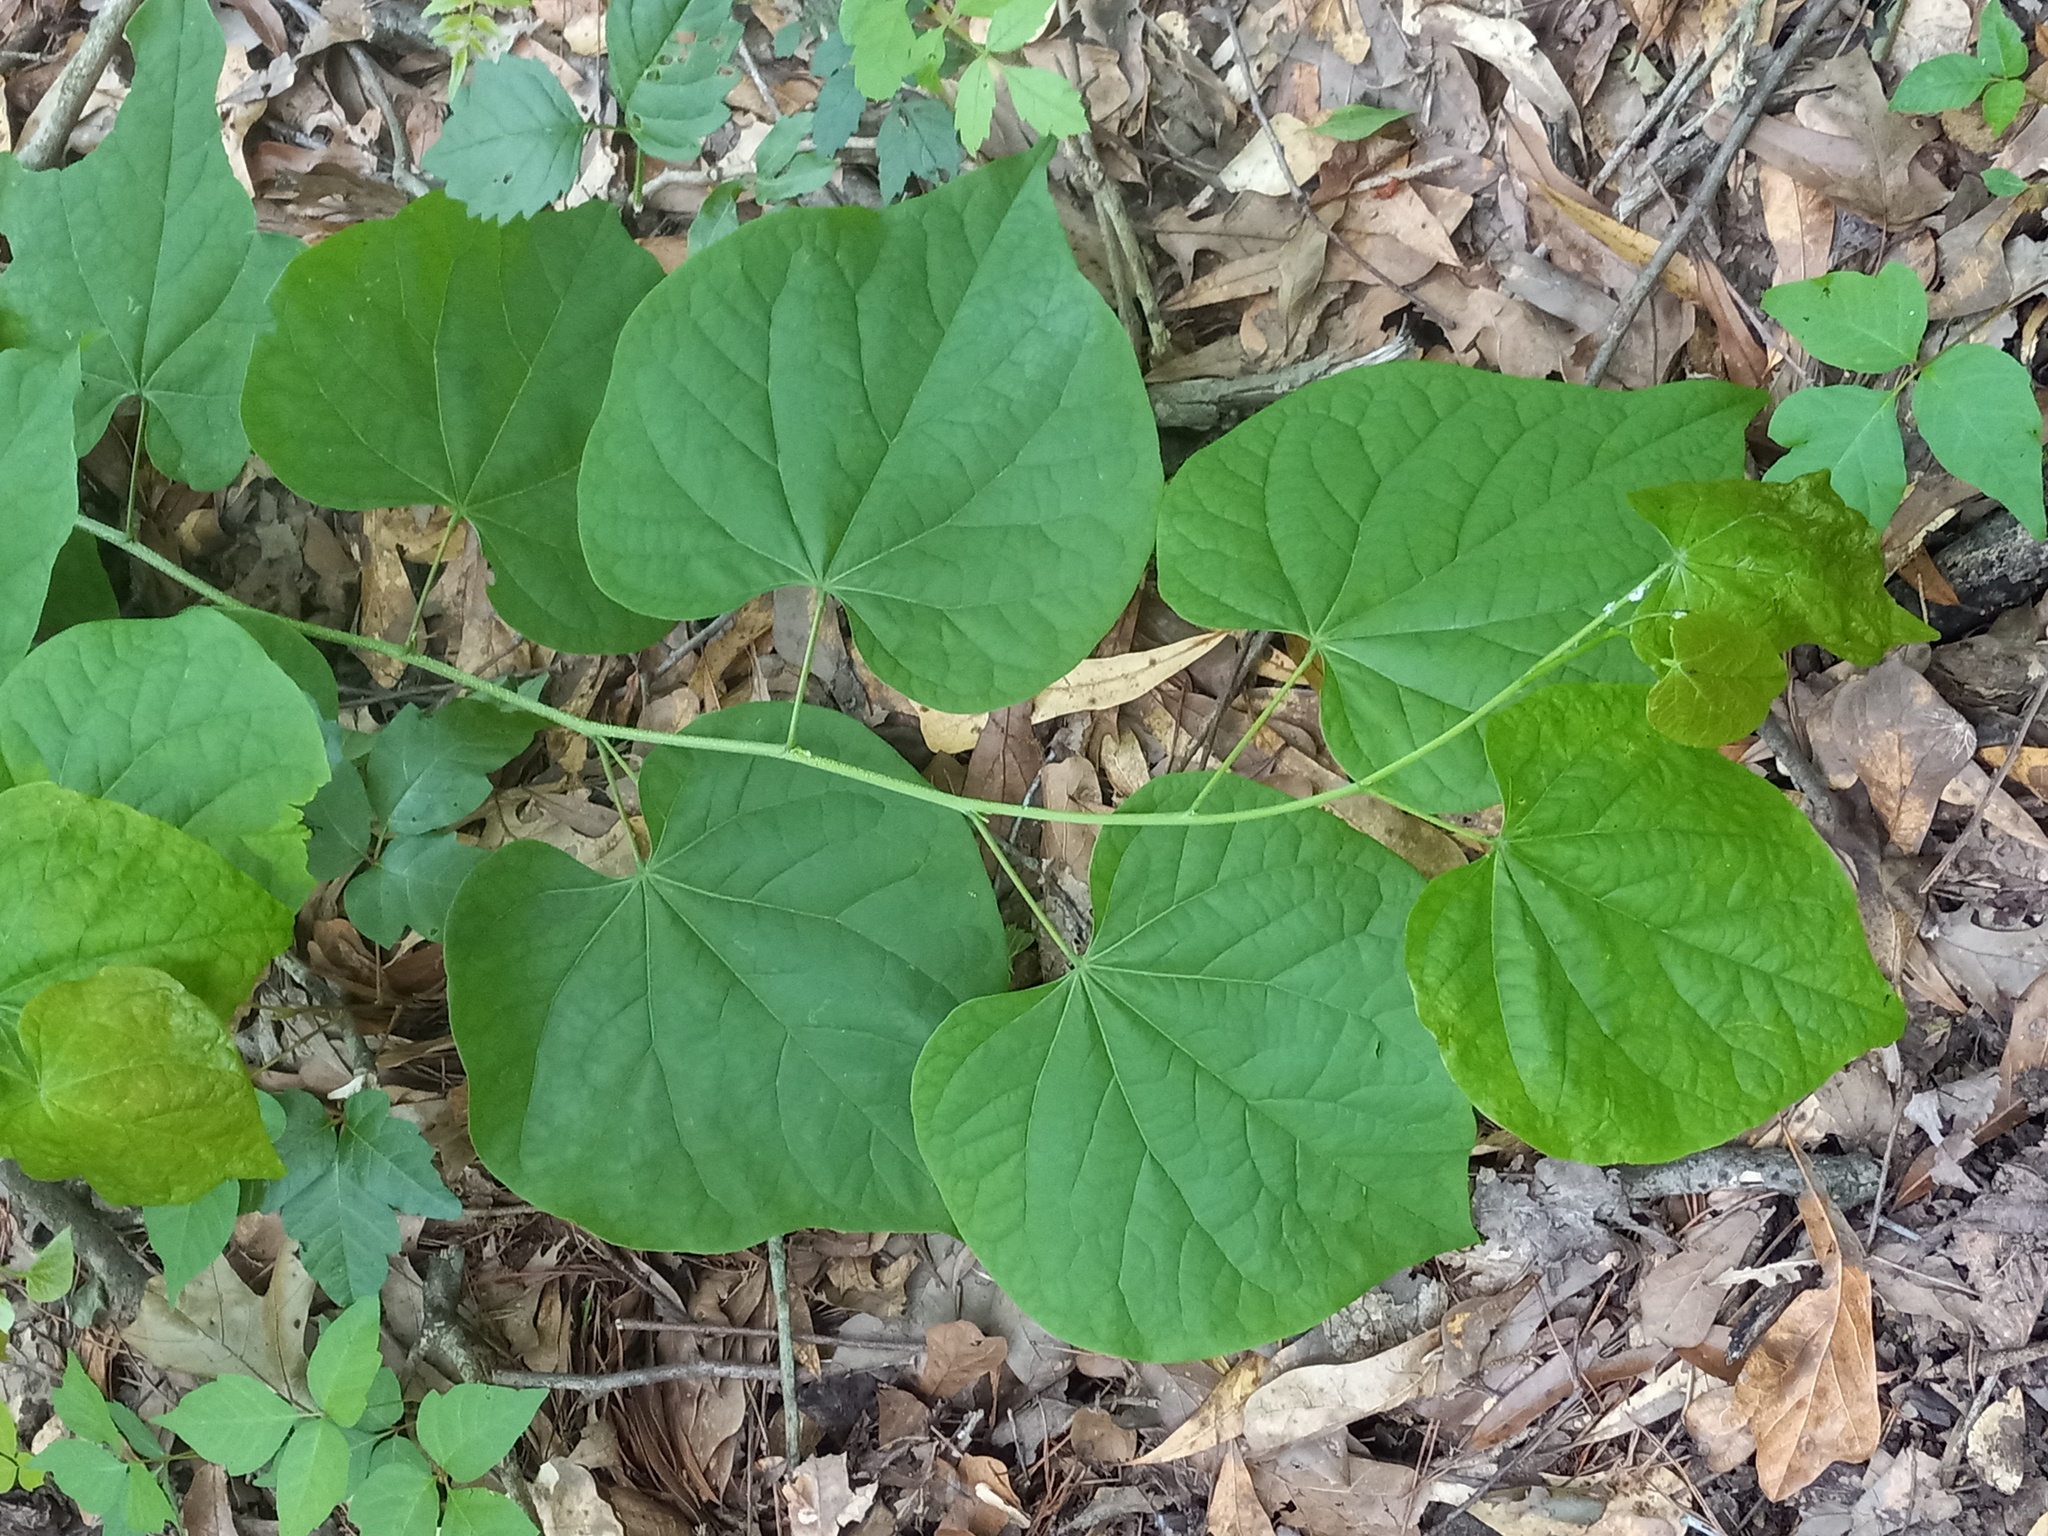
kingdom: Plantae
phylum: Tracheophyta
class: Magnoliopsida
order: Fabales
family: Fabaceae
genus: Cercis
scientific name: Cercis canadensis
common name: Eastern redbud
